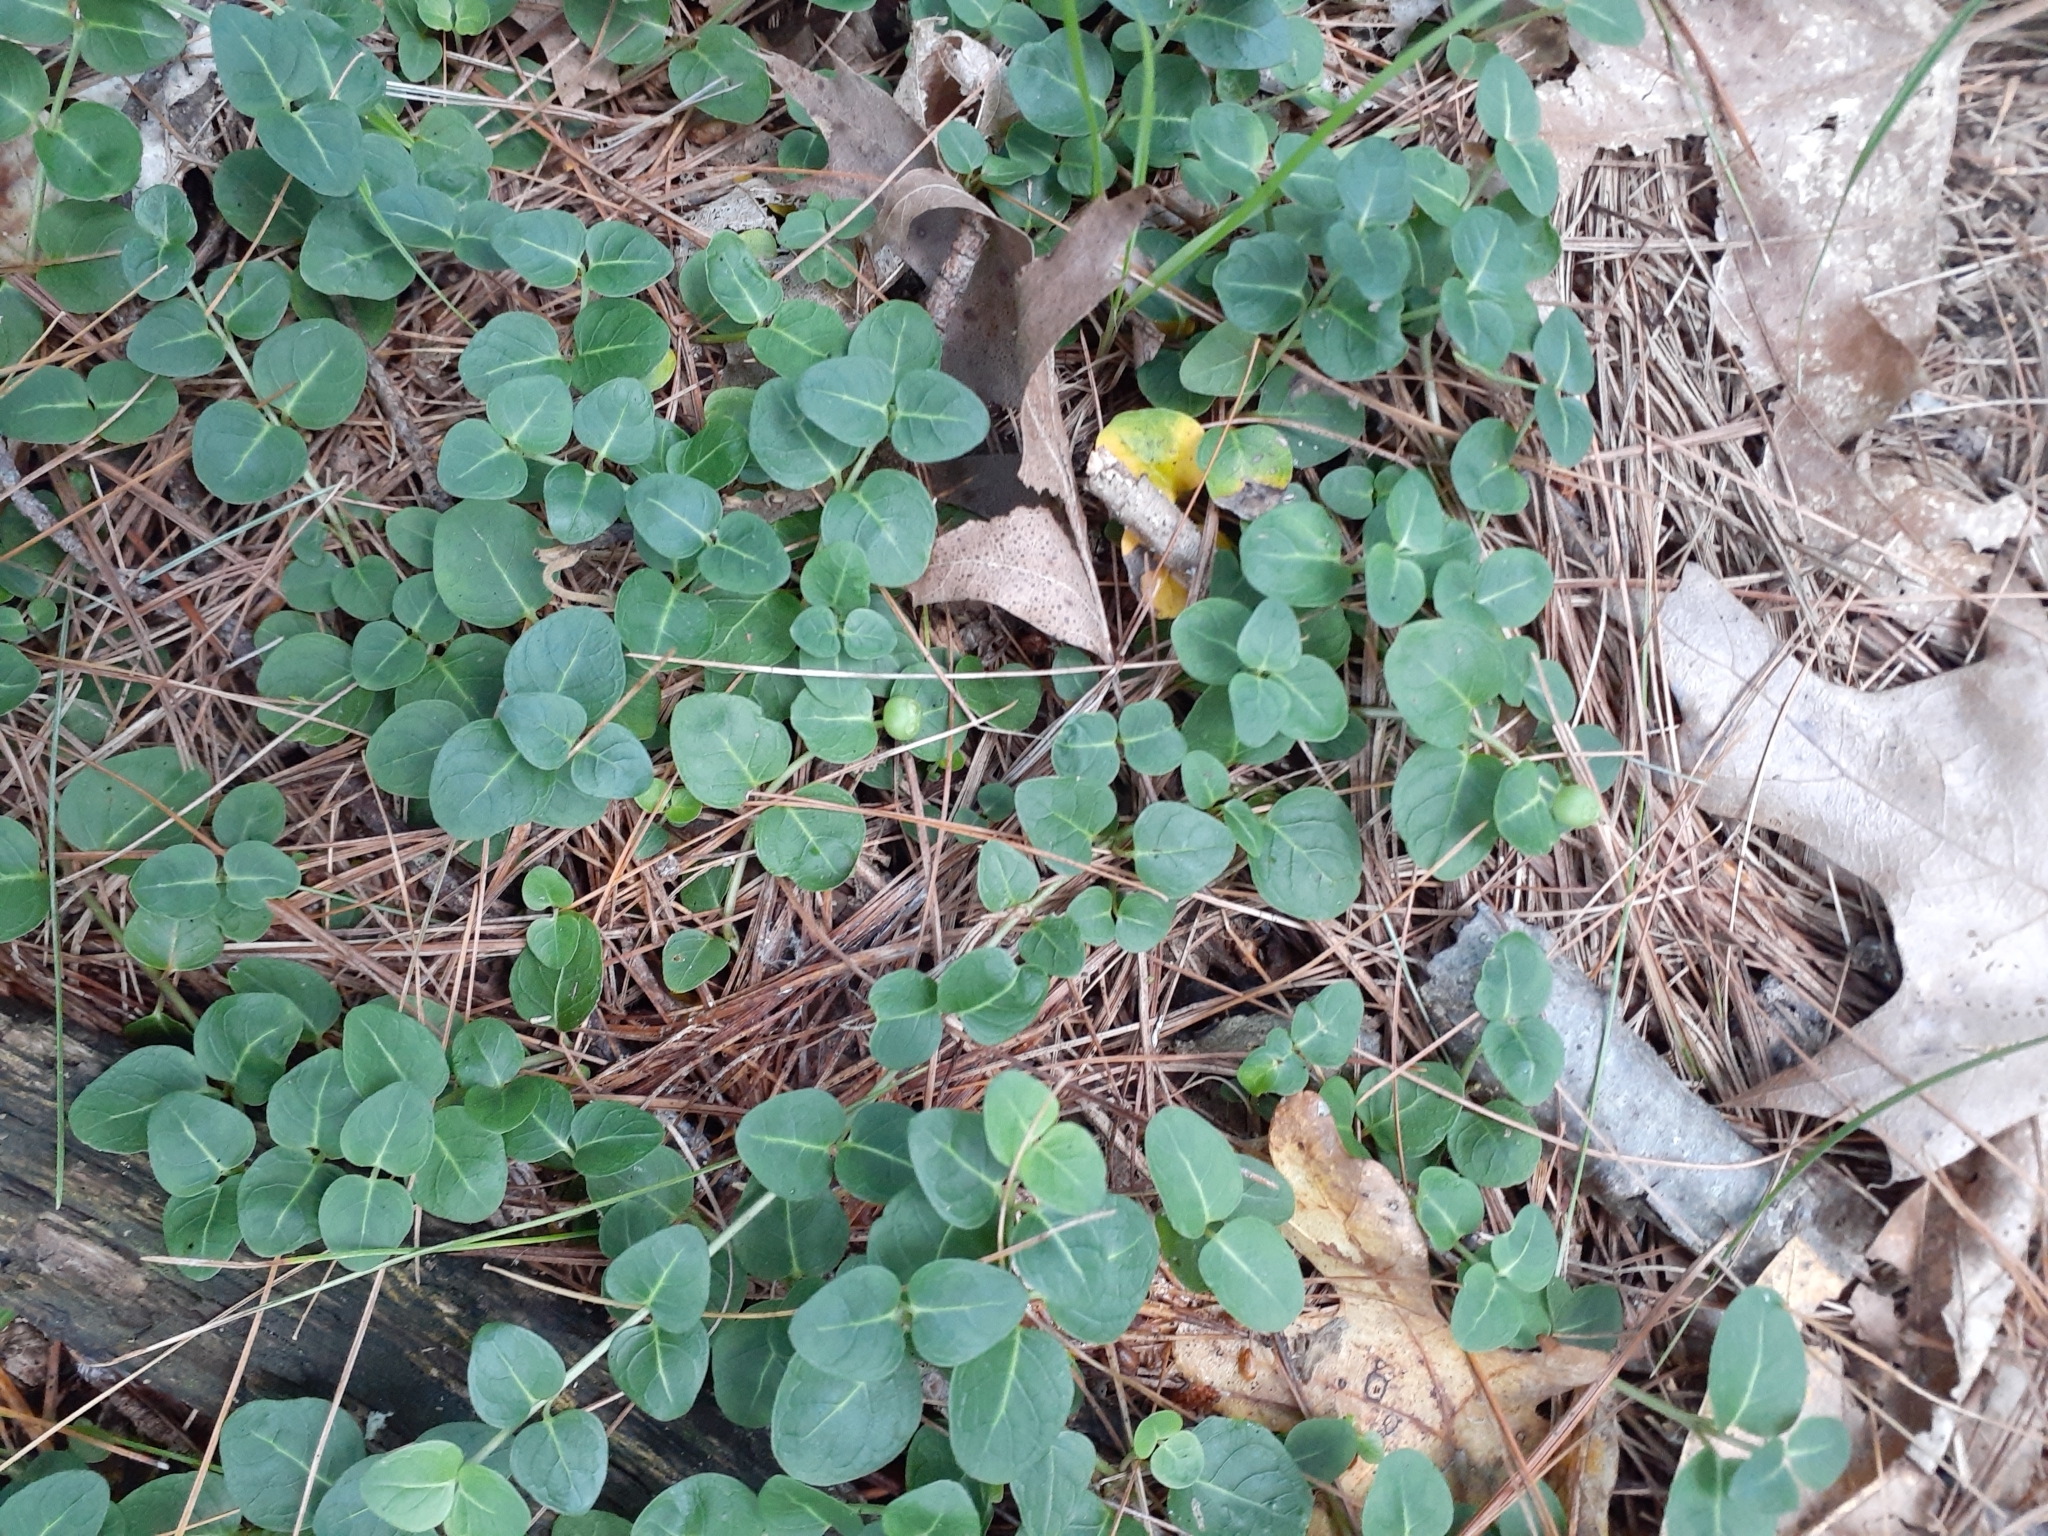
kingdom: Plantae
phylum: Tracheophyta
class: Magnoliopsida
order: Gentianales
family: Rubiaceae
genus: Mitchella
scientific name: Mitchella repens
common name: Partridge-berry
